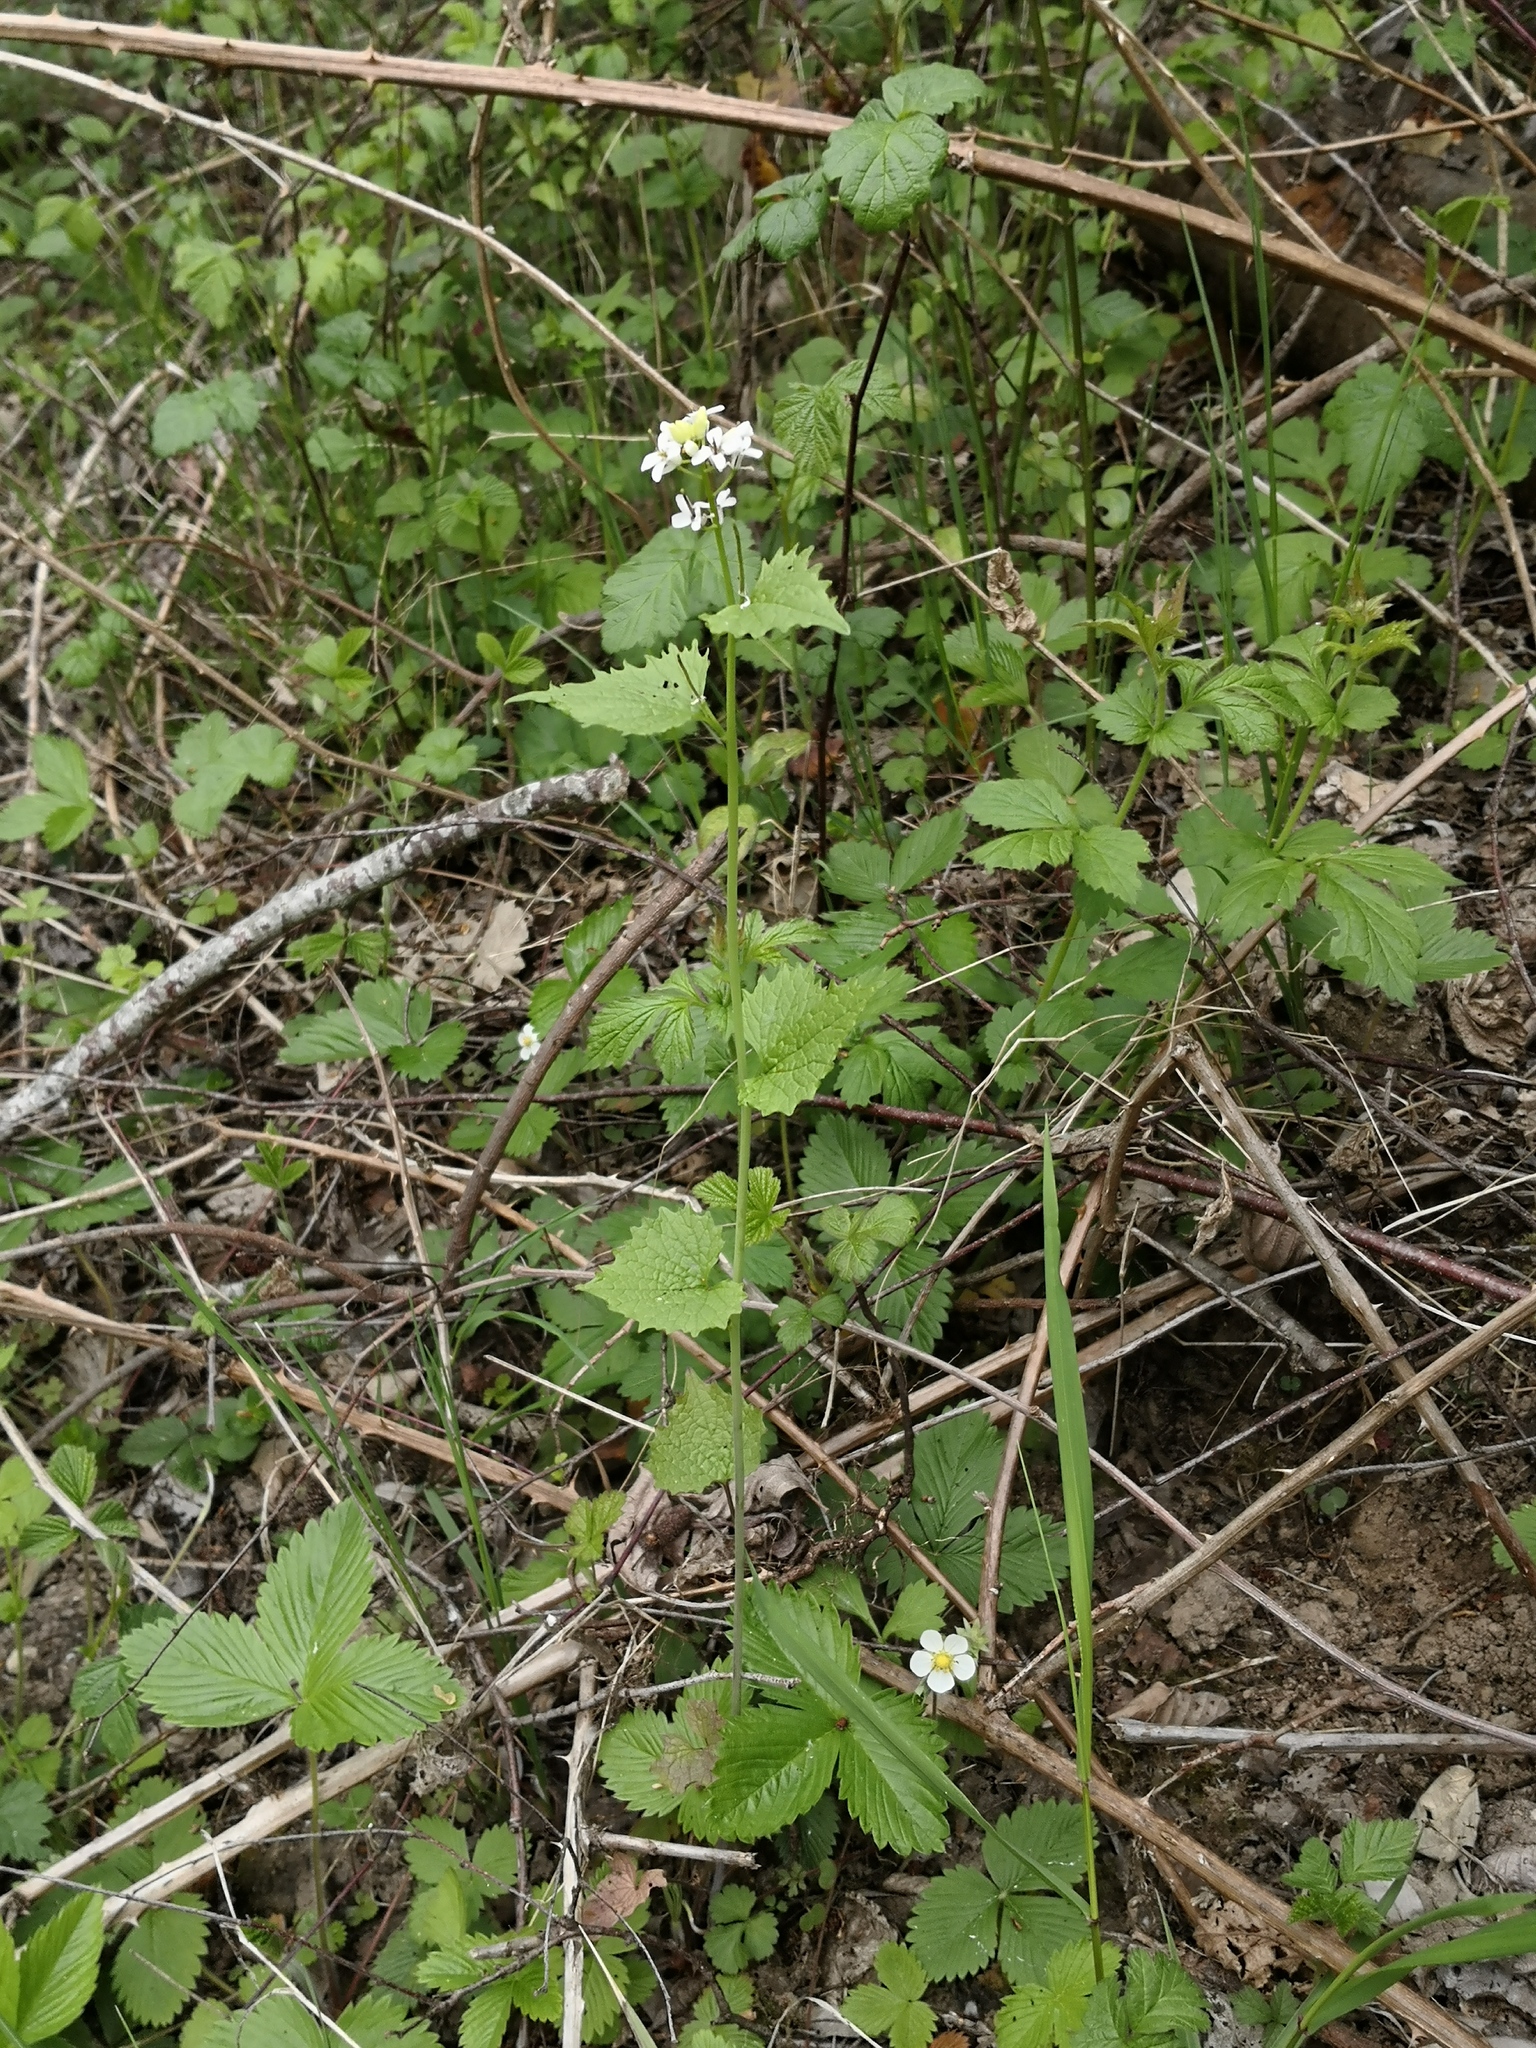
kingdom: Plantae
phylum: Tracheophyta
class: Magnoliopsida
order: Brassicales
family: Brassicaceae
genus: Alliaria
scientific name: Alliaria petiolata
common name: Garlic mustard
